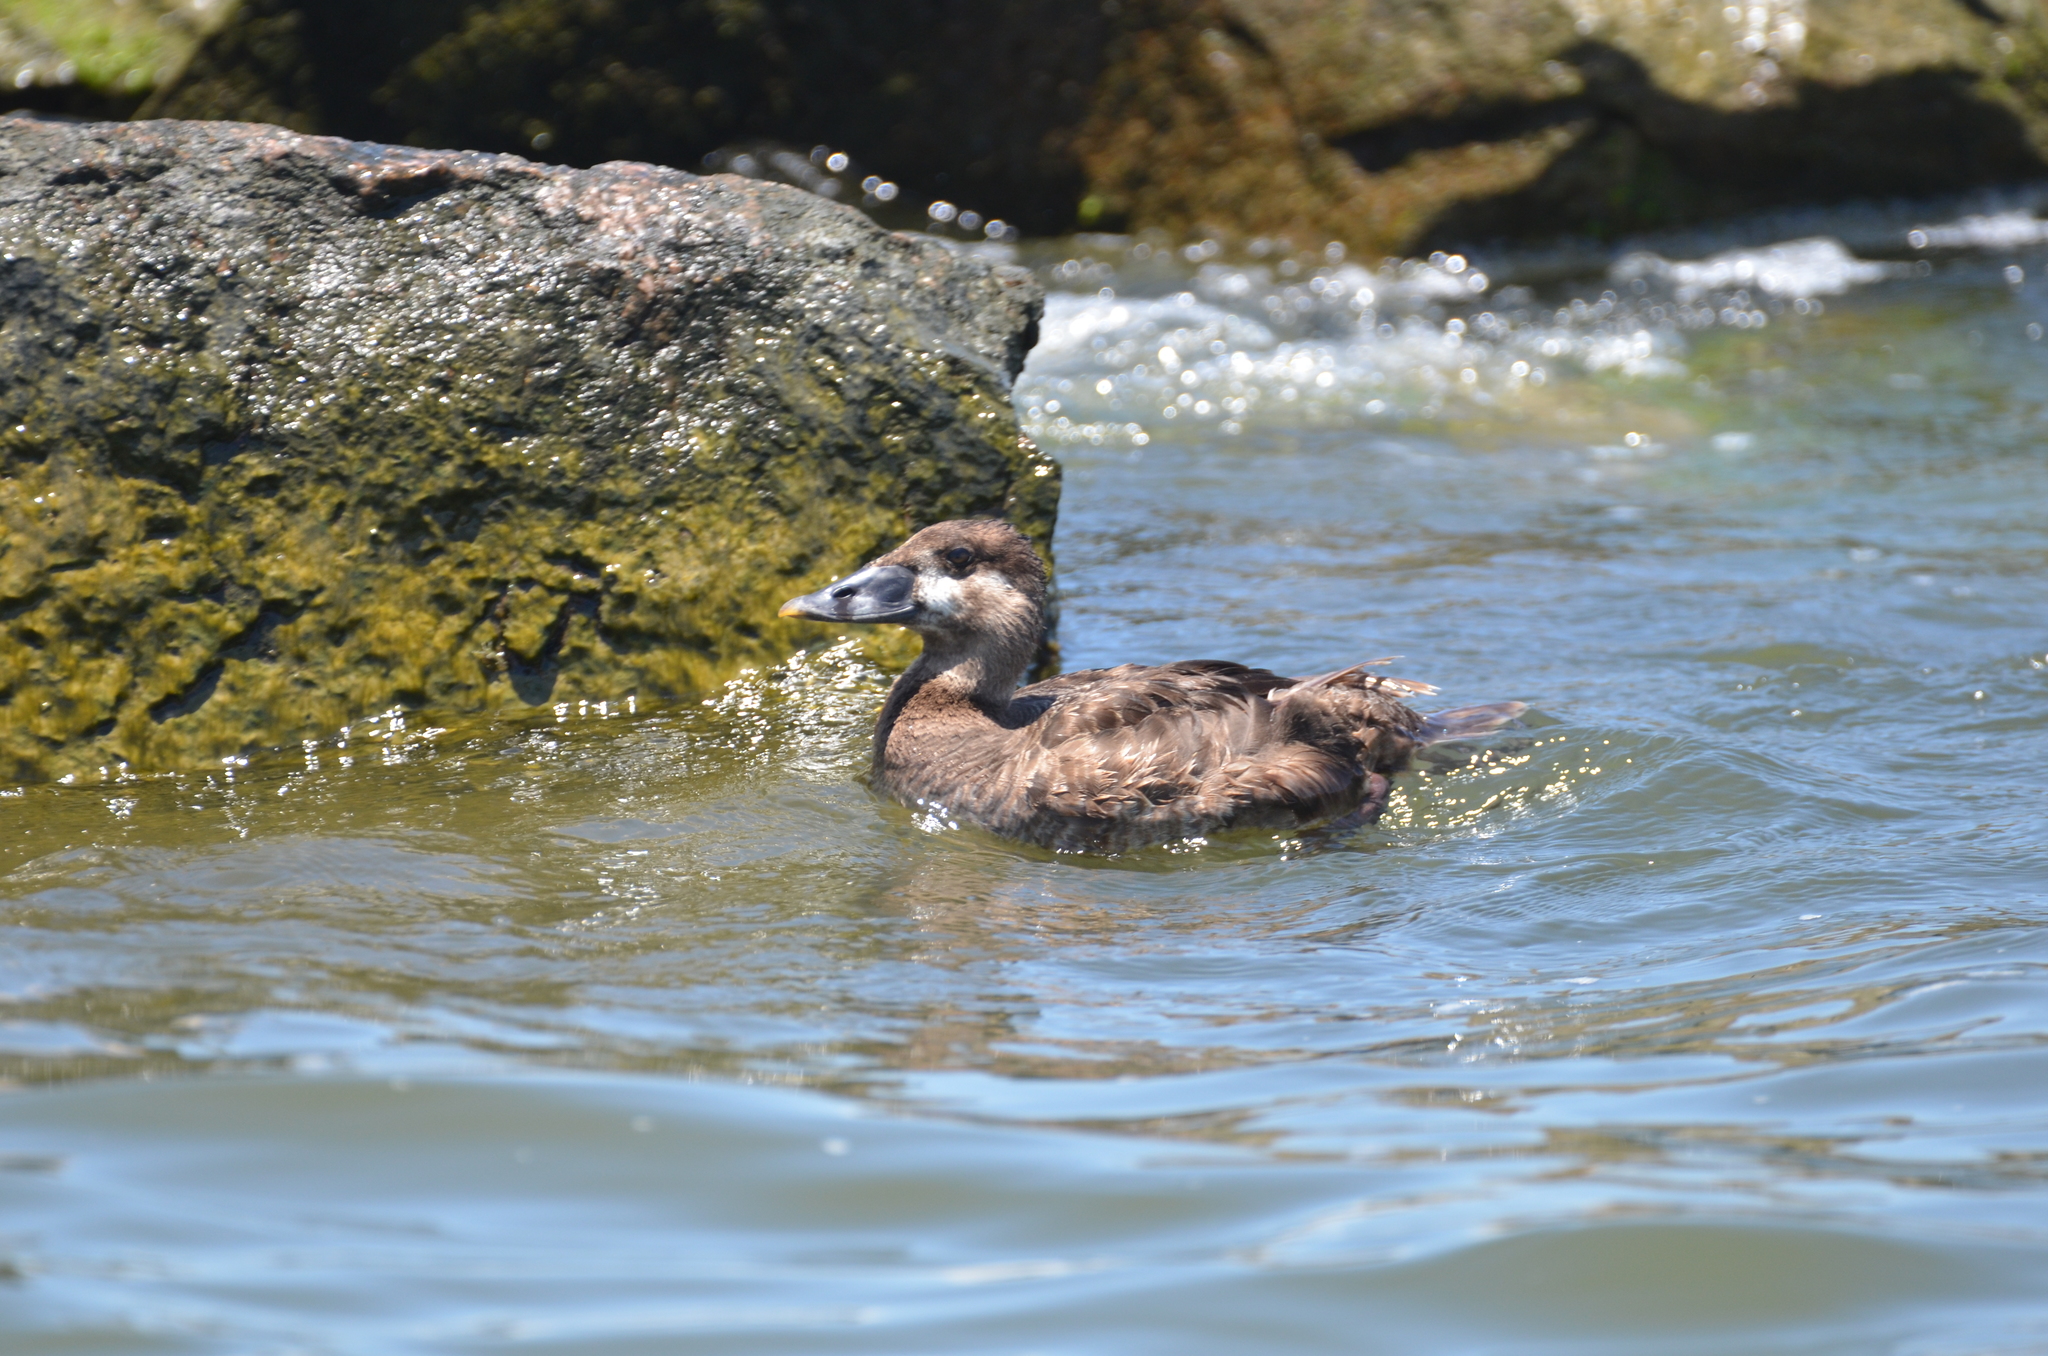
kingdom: Animalia
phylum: Chordata
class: Aves
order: Anseriformes
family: Anatidae
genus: Melanitta
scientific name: Melanitta perspicillata
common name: Surf scoter
